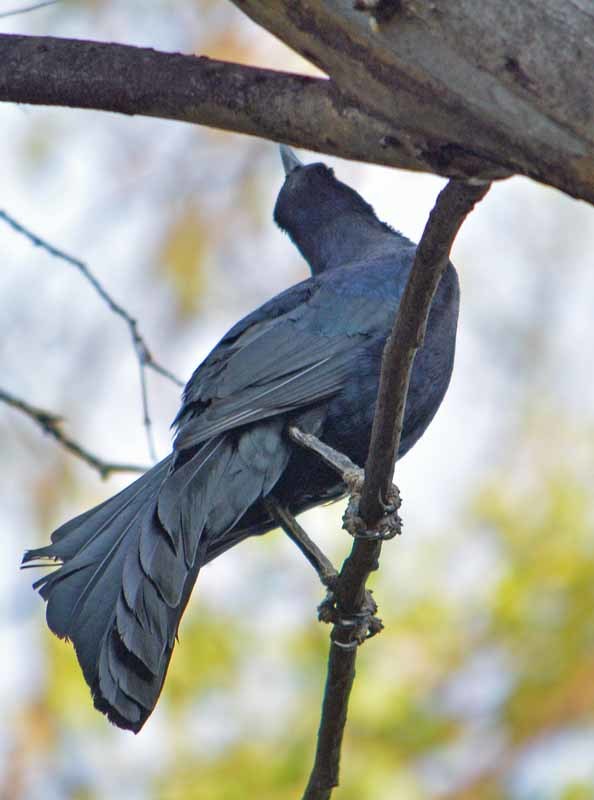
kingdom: Animalia
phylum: Chordata
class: Aves
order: Passeriformes
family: Icteridae
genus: Quiscalus
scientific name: Quiscalus mexicanus
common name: Great-tailed grackle
